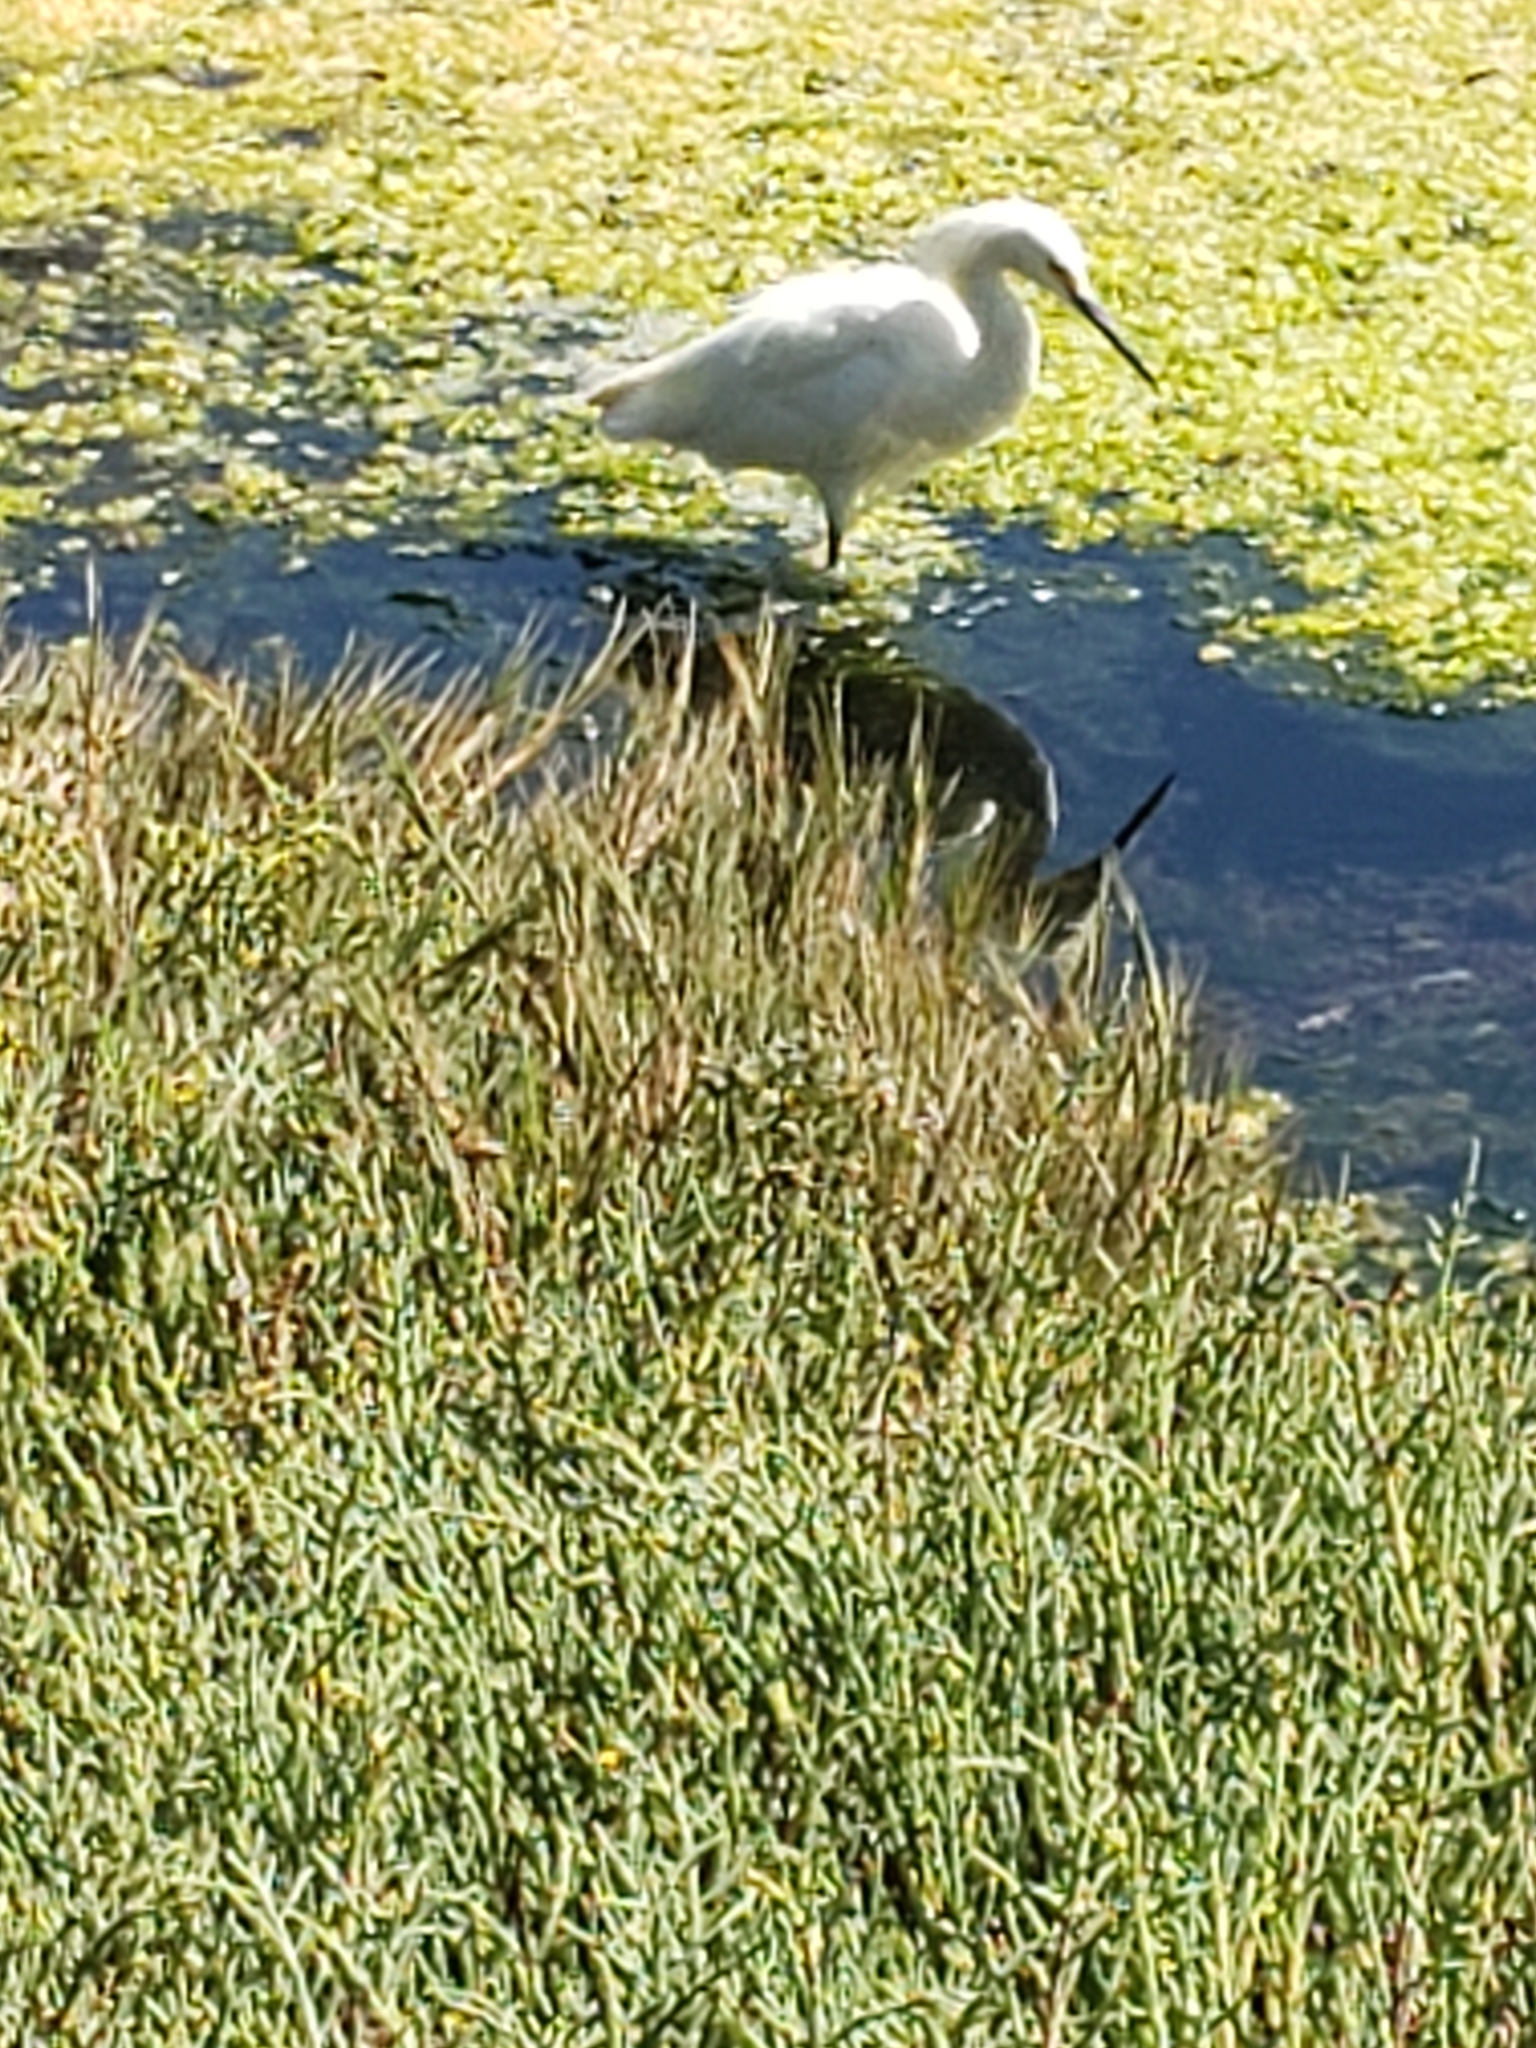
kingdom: Animalia
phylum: Chordata
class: Aves
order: Pelecaniformes
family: Ardeidae
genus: Egretta
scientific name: Egretta thula
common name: Snowy egret
